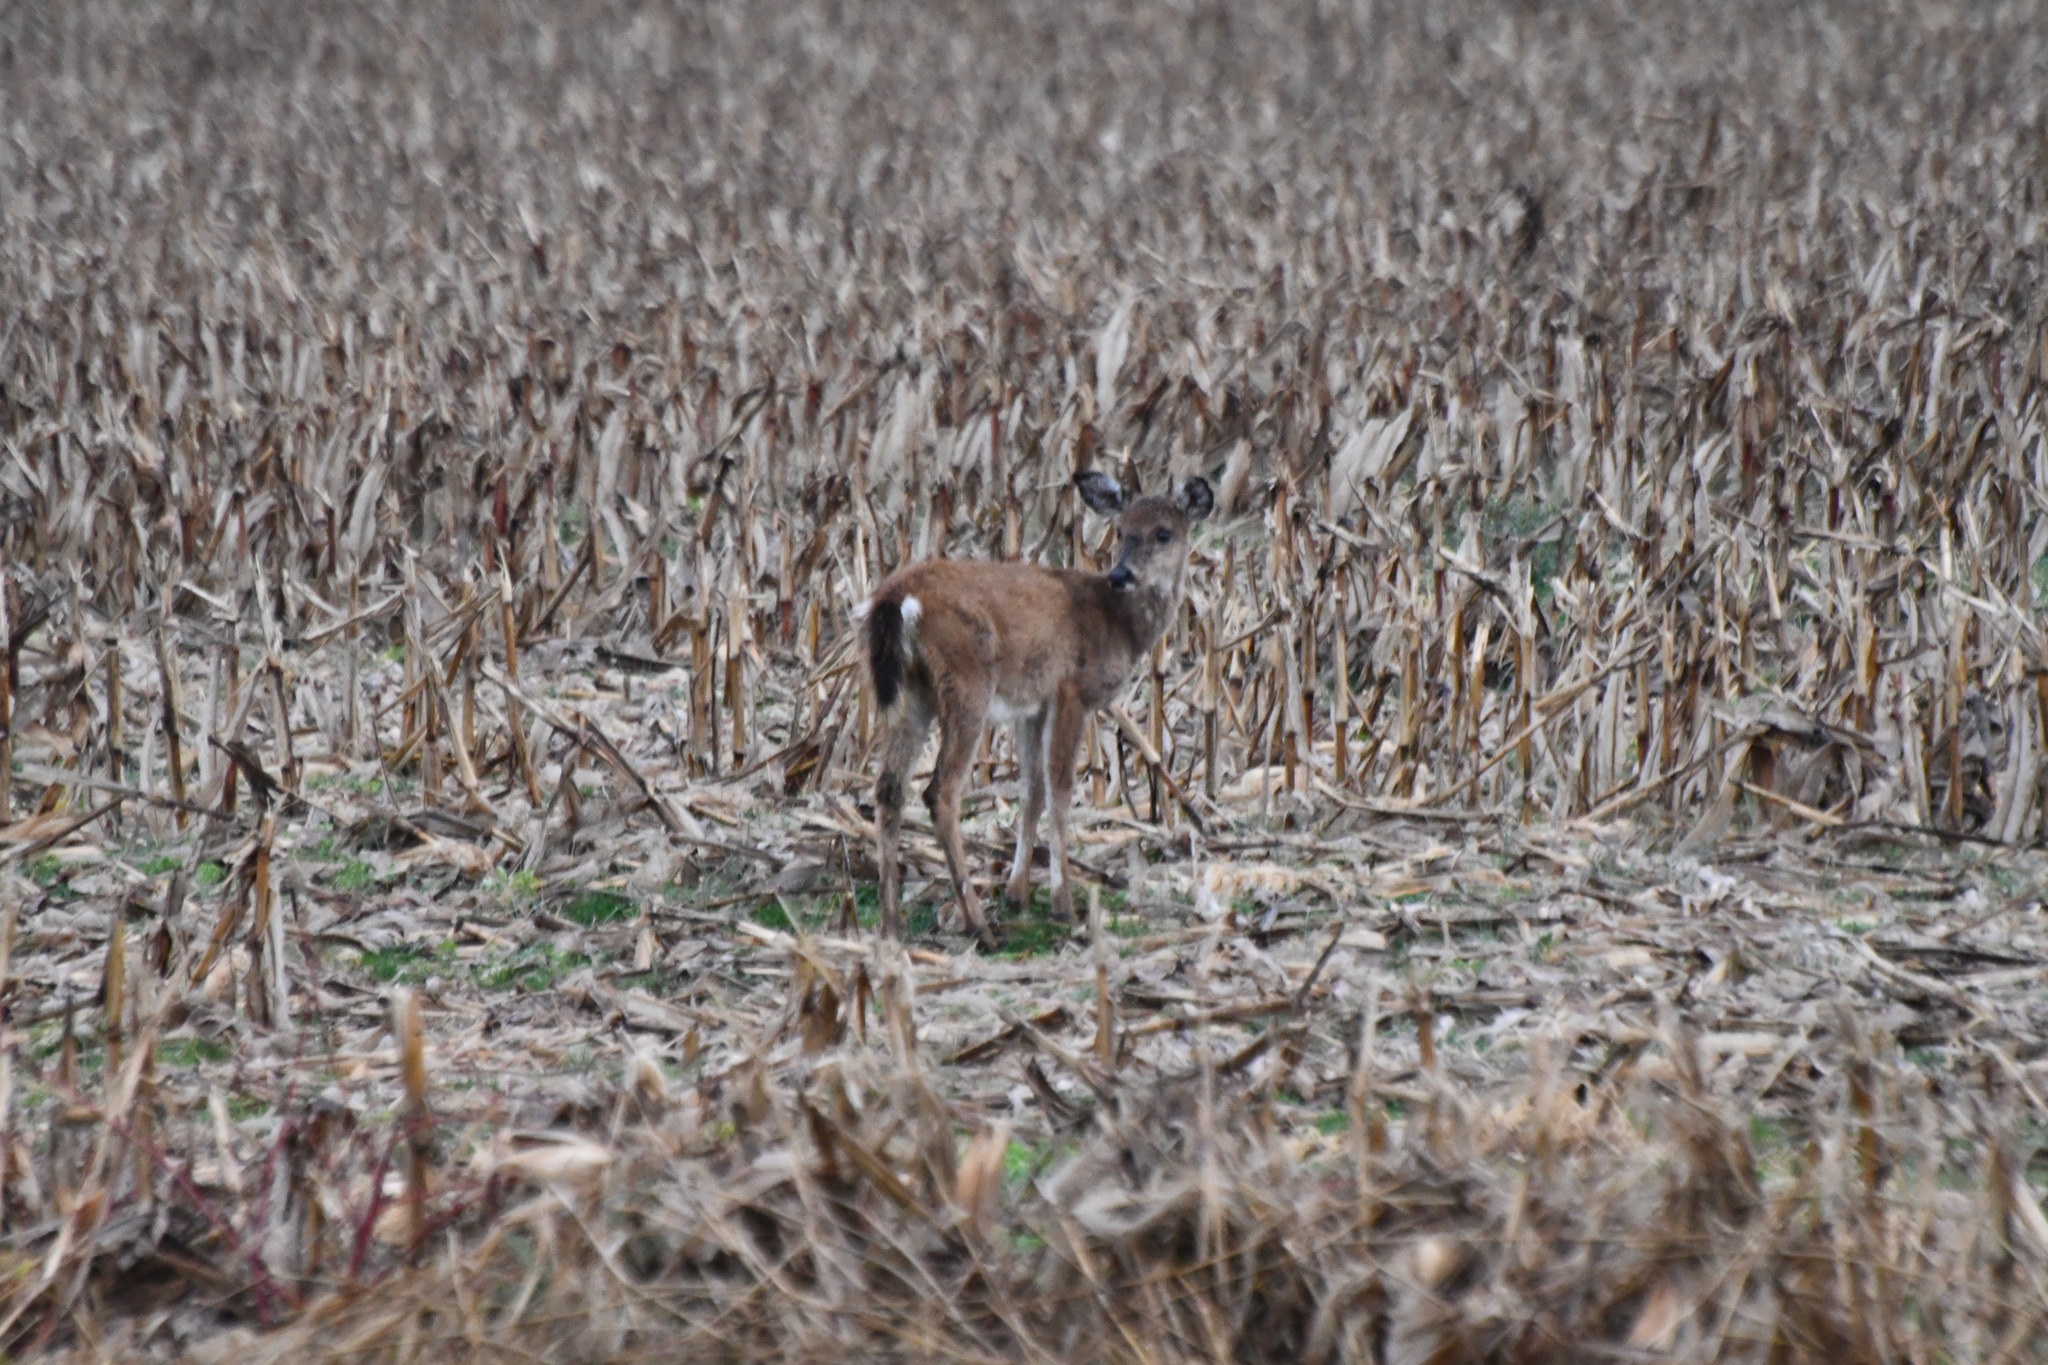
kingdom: Animalia
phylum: Chordata
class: Mammalia
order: Artiodactyla
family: Cervidae
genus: Odocoileus
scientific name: Odocoileus virginianus
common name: White-tailed deer
